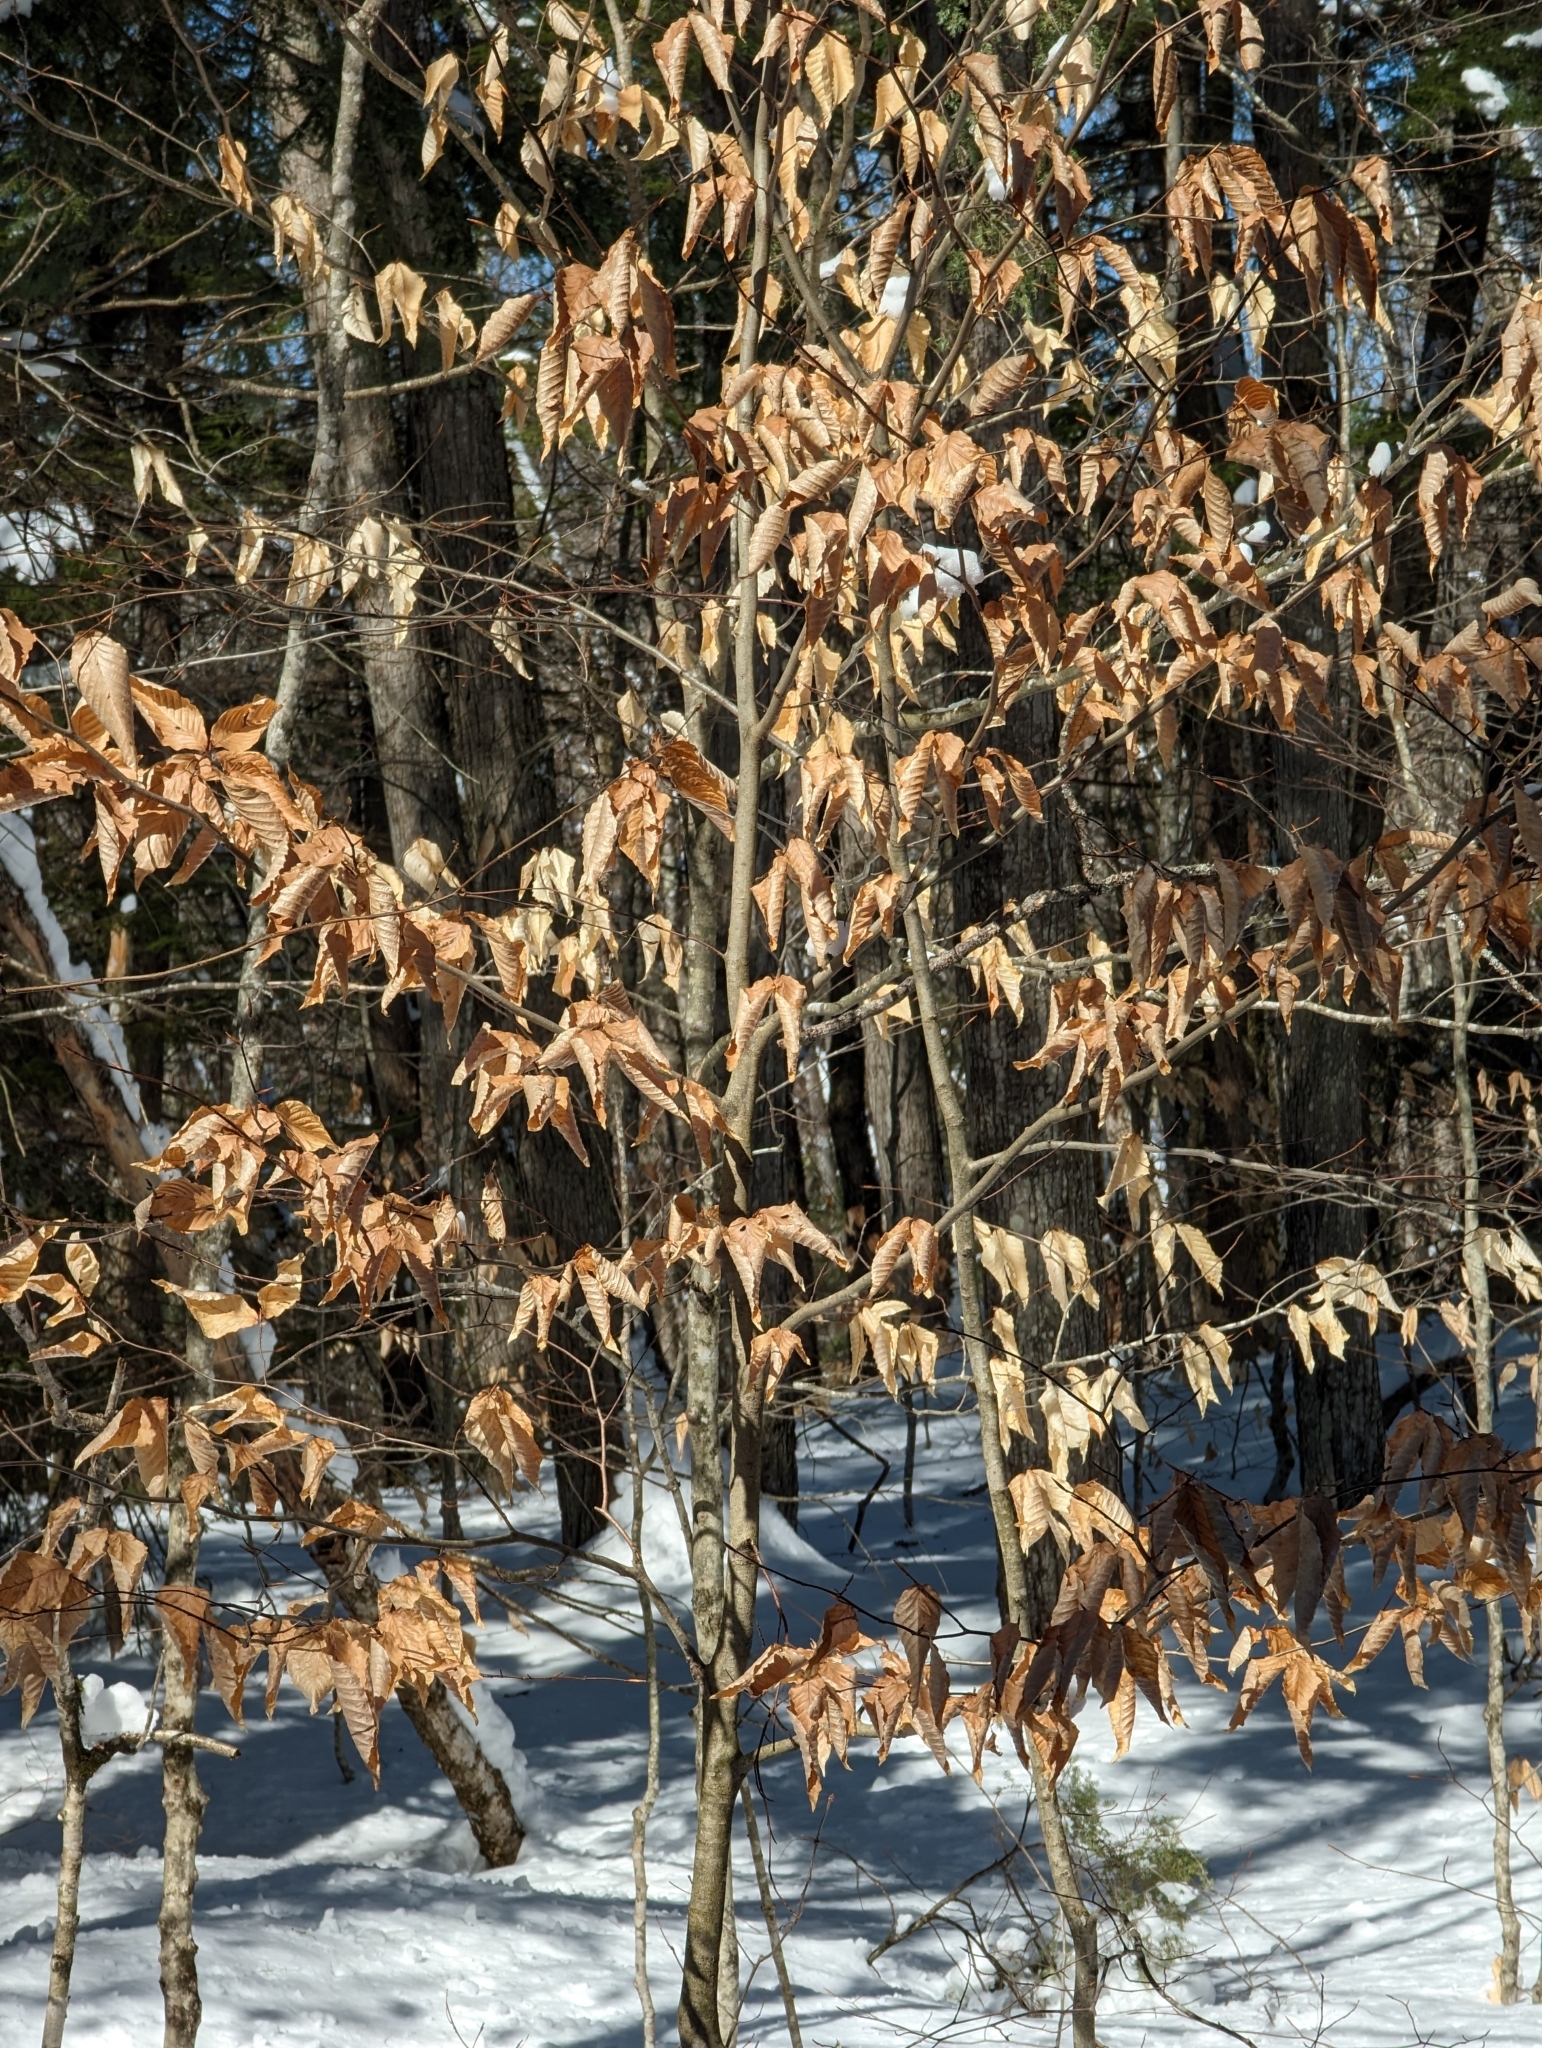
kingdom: Plantae
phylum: Tracheophyta
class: Magnoliopsida
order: Fagales
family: Fagaceae
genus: Fagus
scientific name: Fagus grandifolia
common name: American beech
